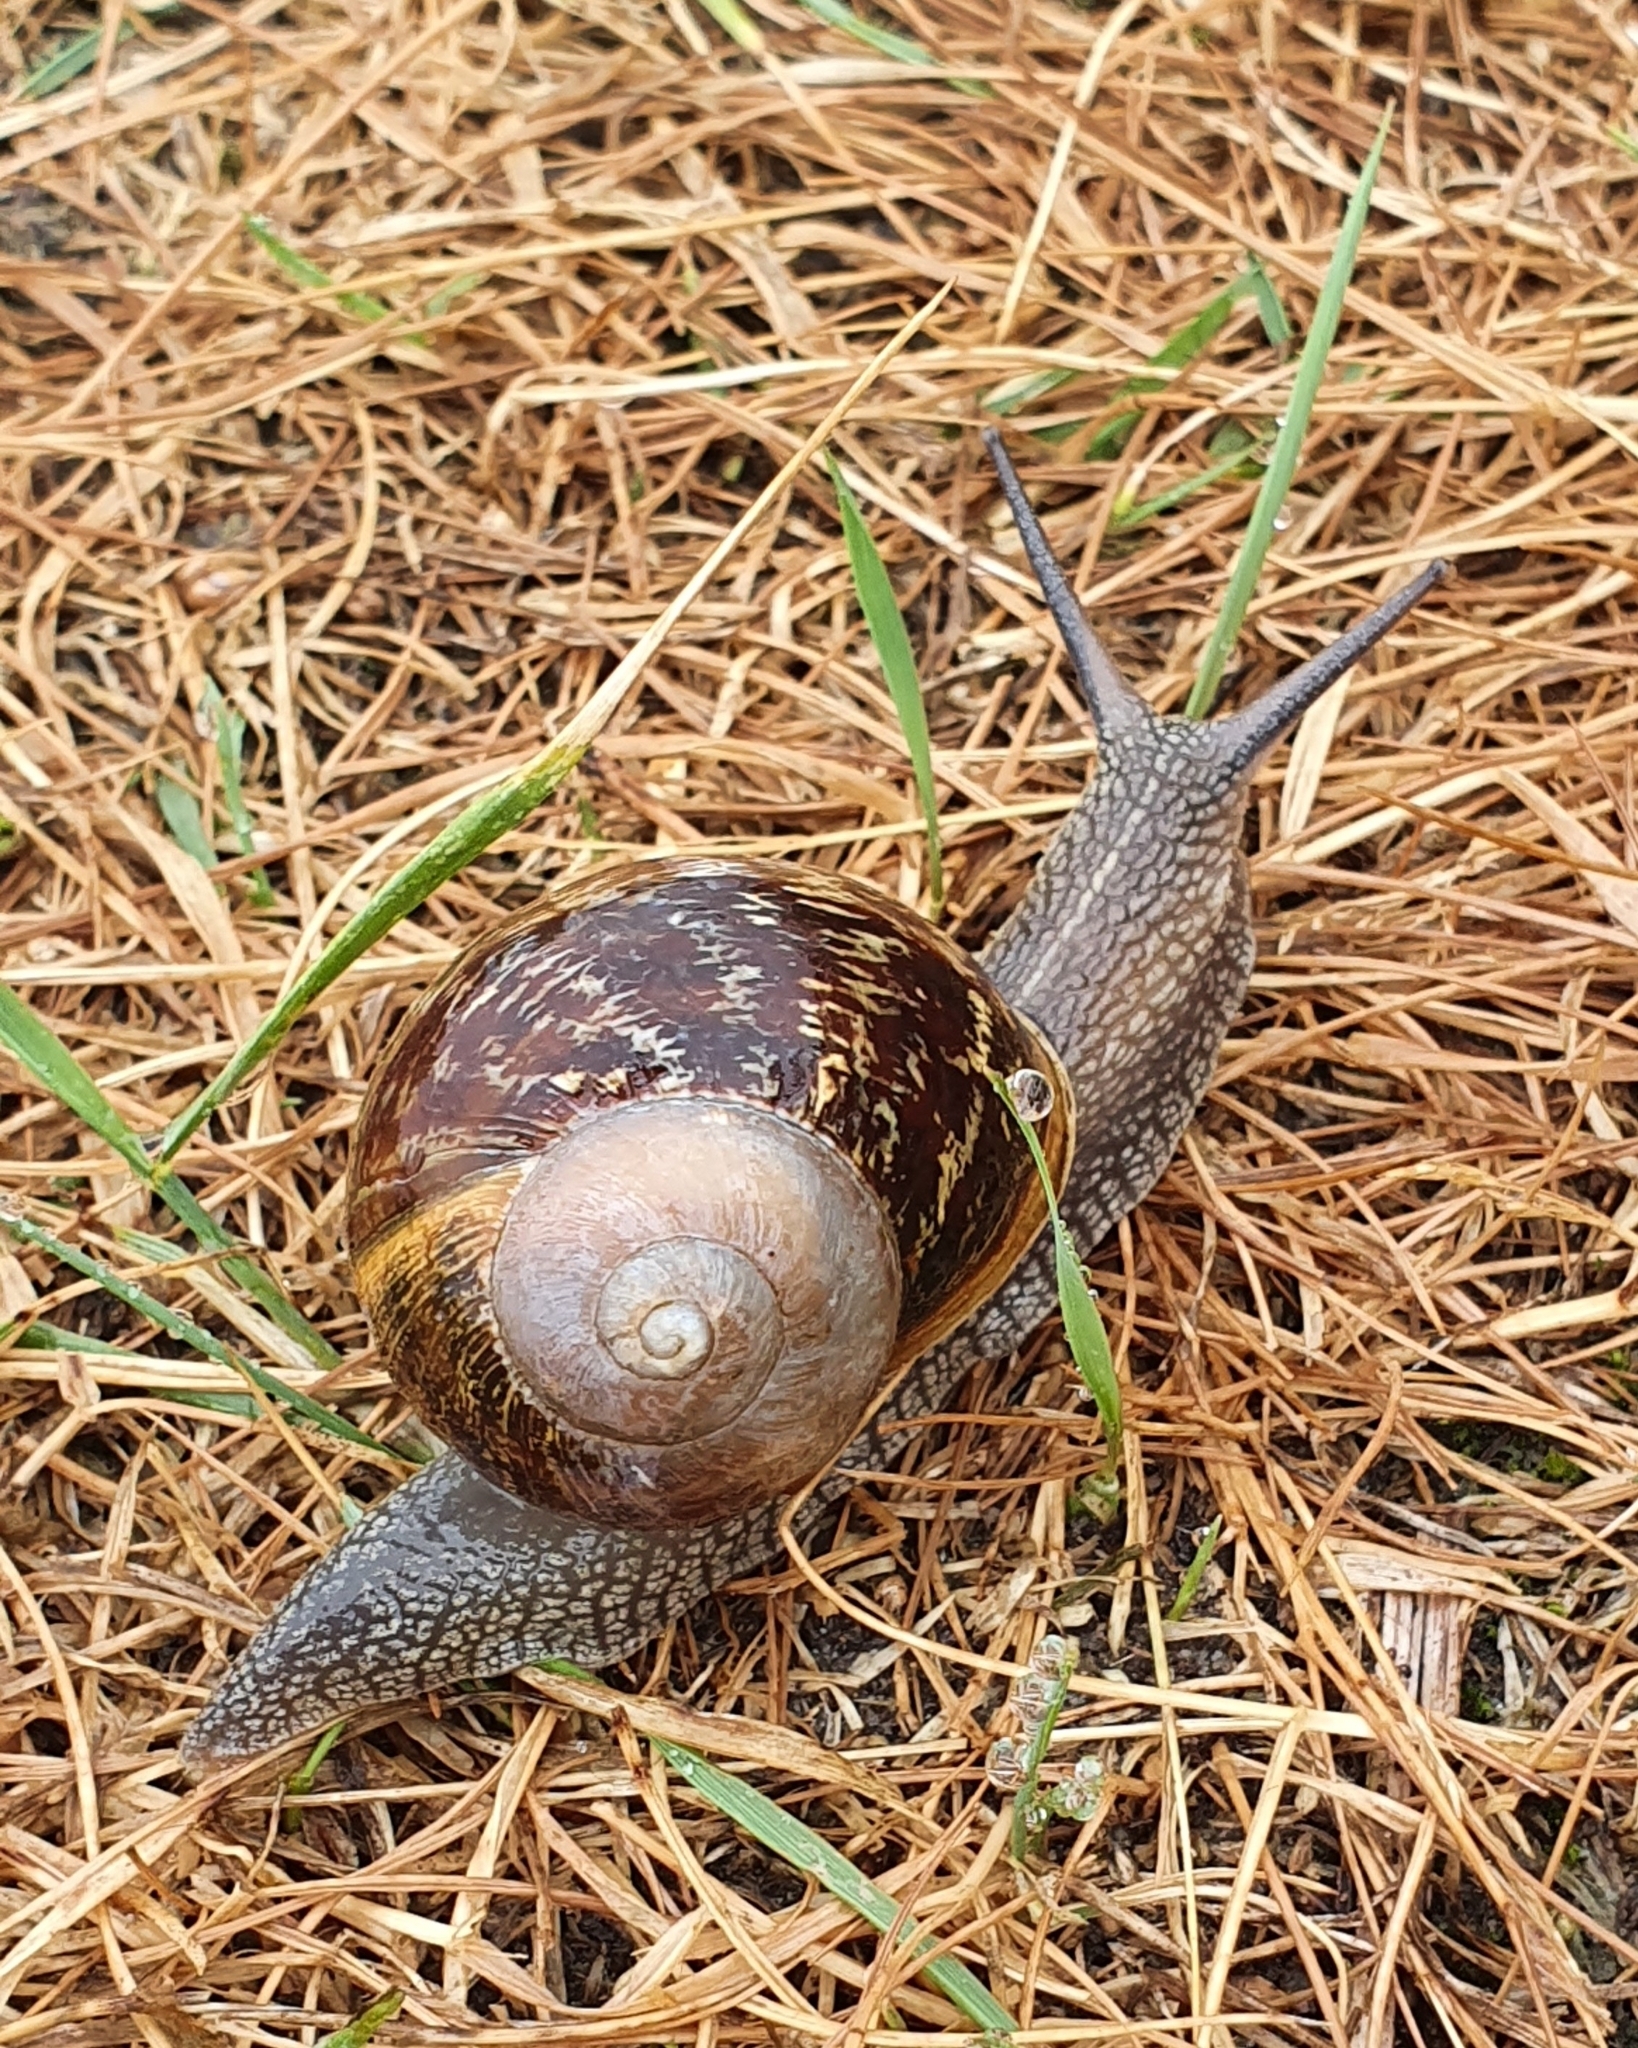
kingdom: Animalia
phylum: Mollusca
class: Gastropoda
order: Stylommatophora
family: Helicidae
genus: Cornu
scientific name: Cornu aspersum
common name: Brown garden snail
